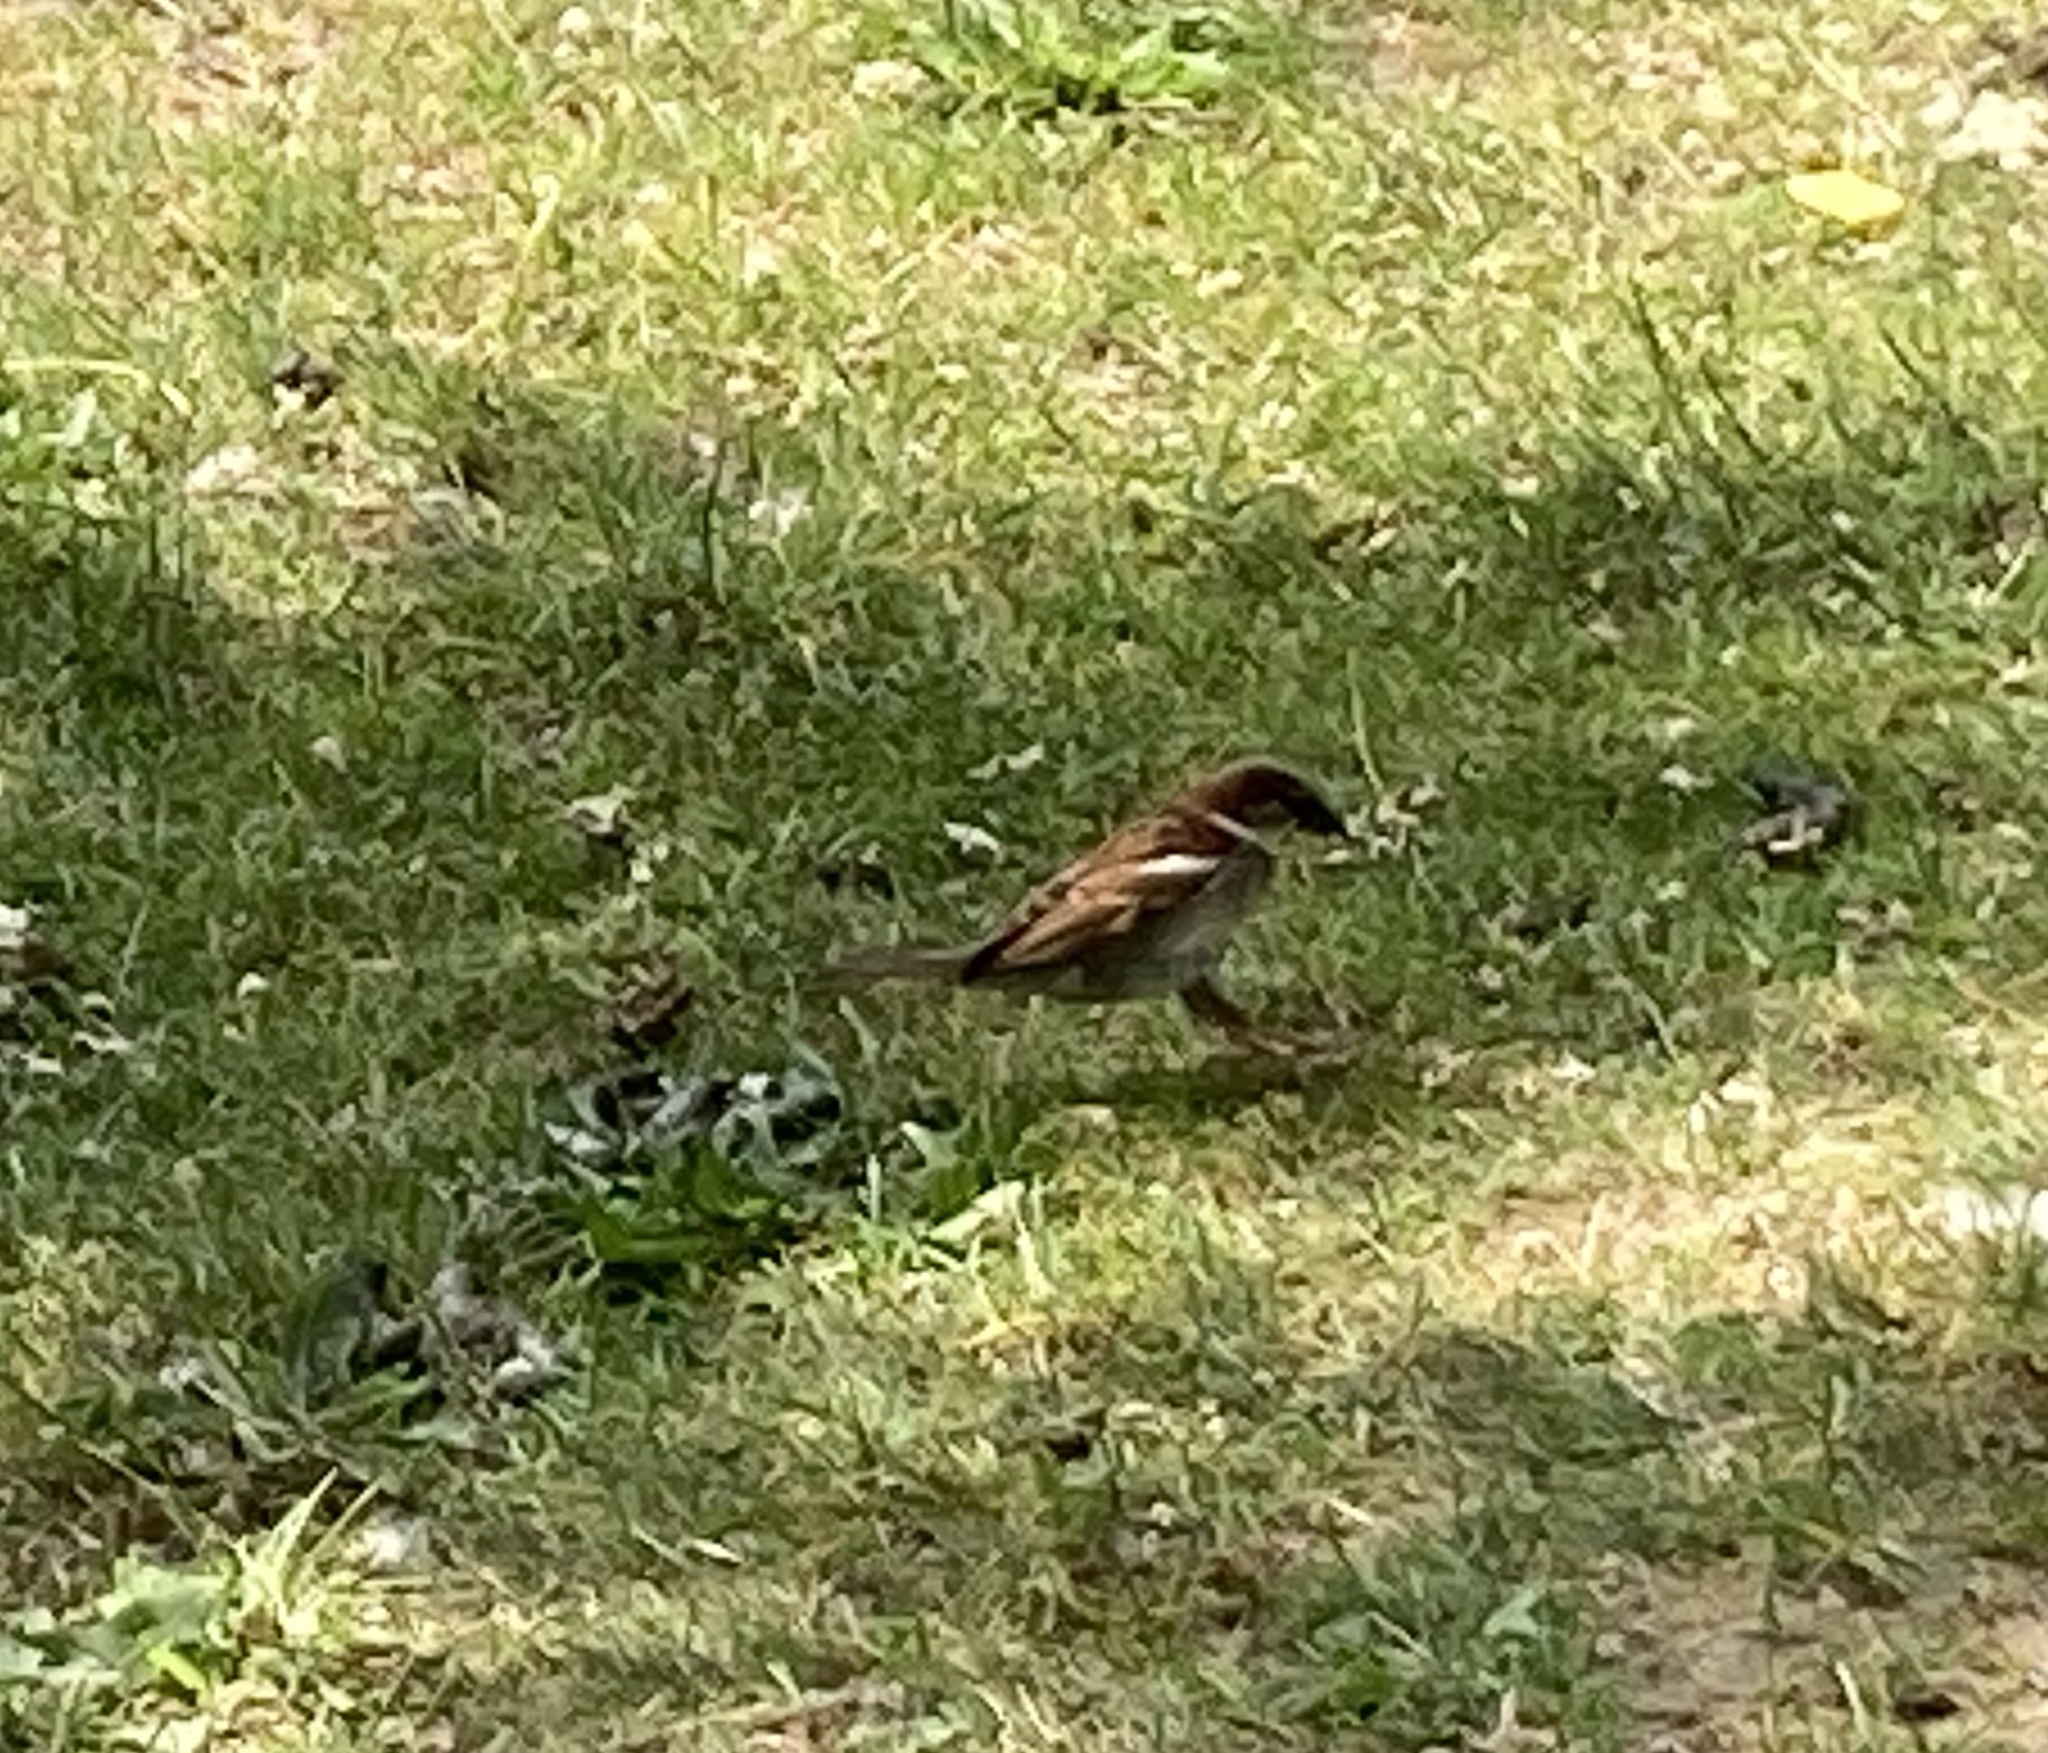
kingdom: Animalia
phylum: Chordata
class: Aves
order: Passeriformes
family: Passeridae
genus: Passer
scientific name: Passer domesticus
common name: House sparrow
